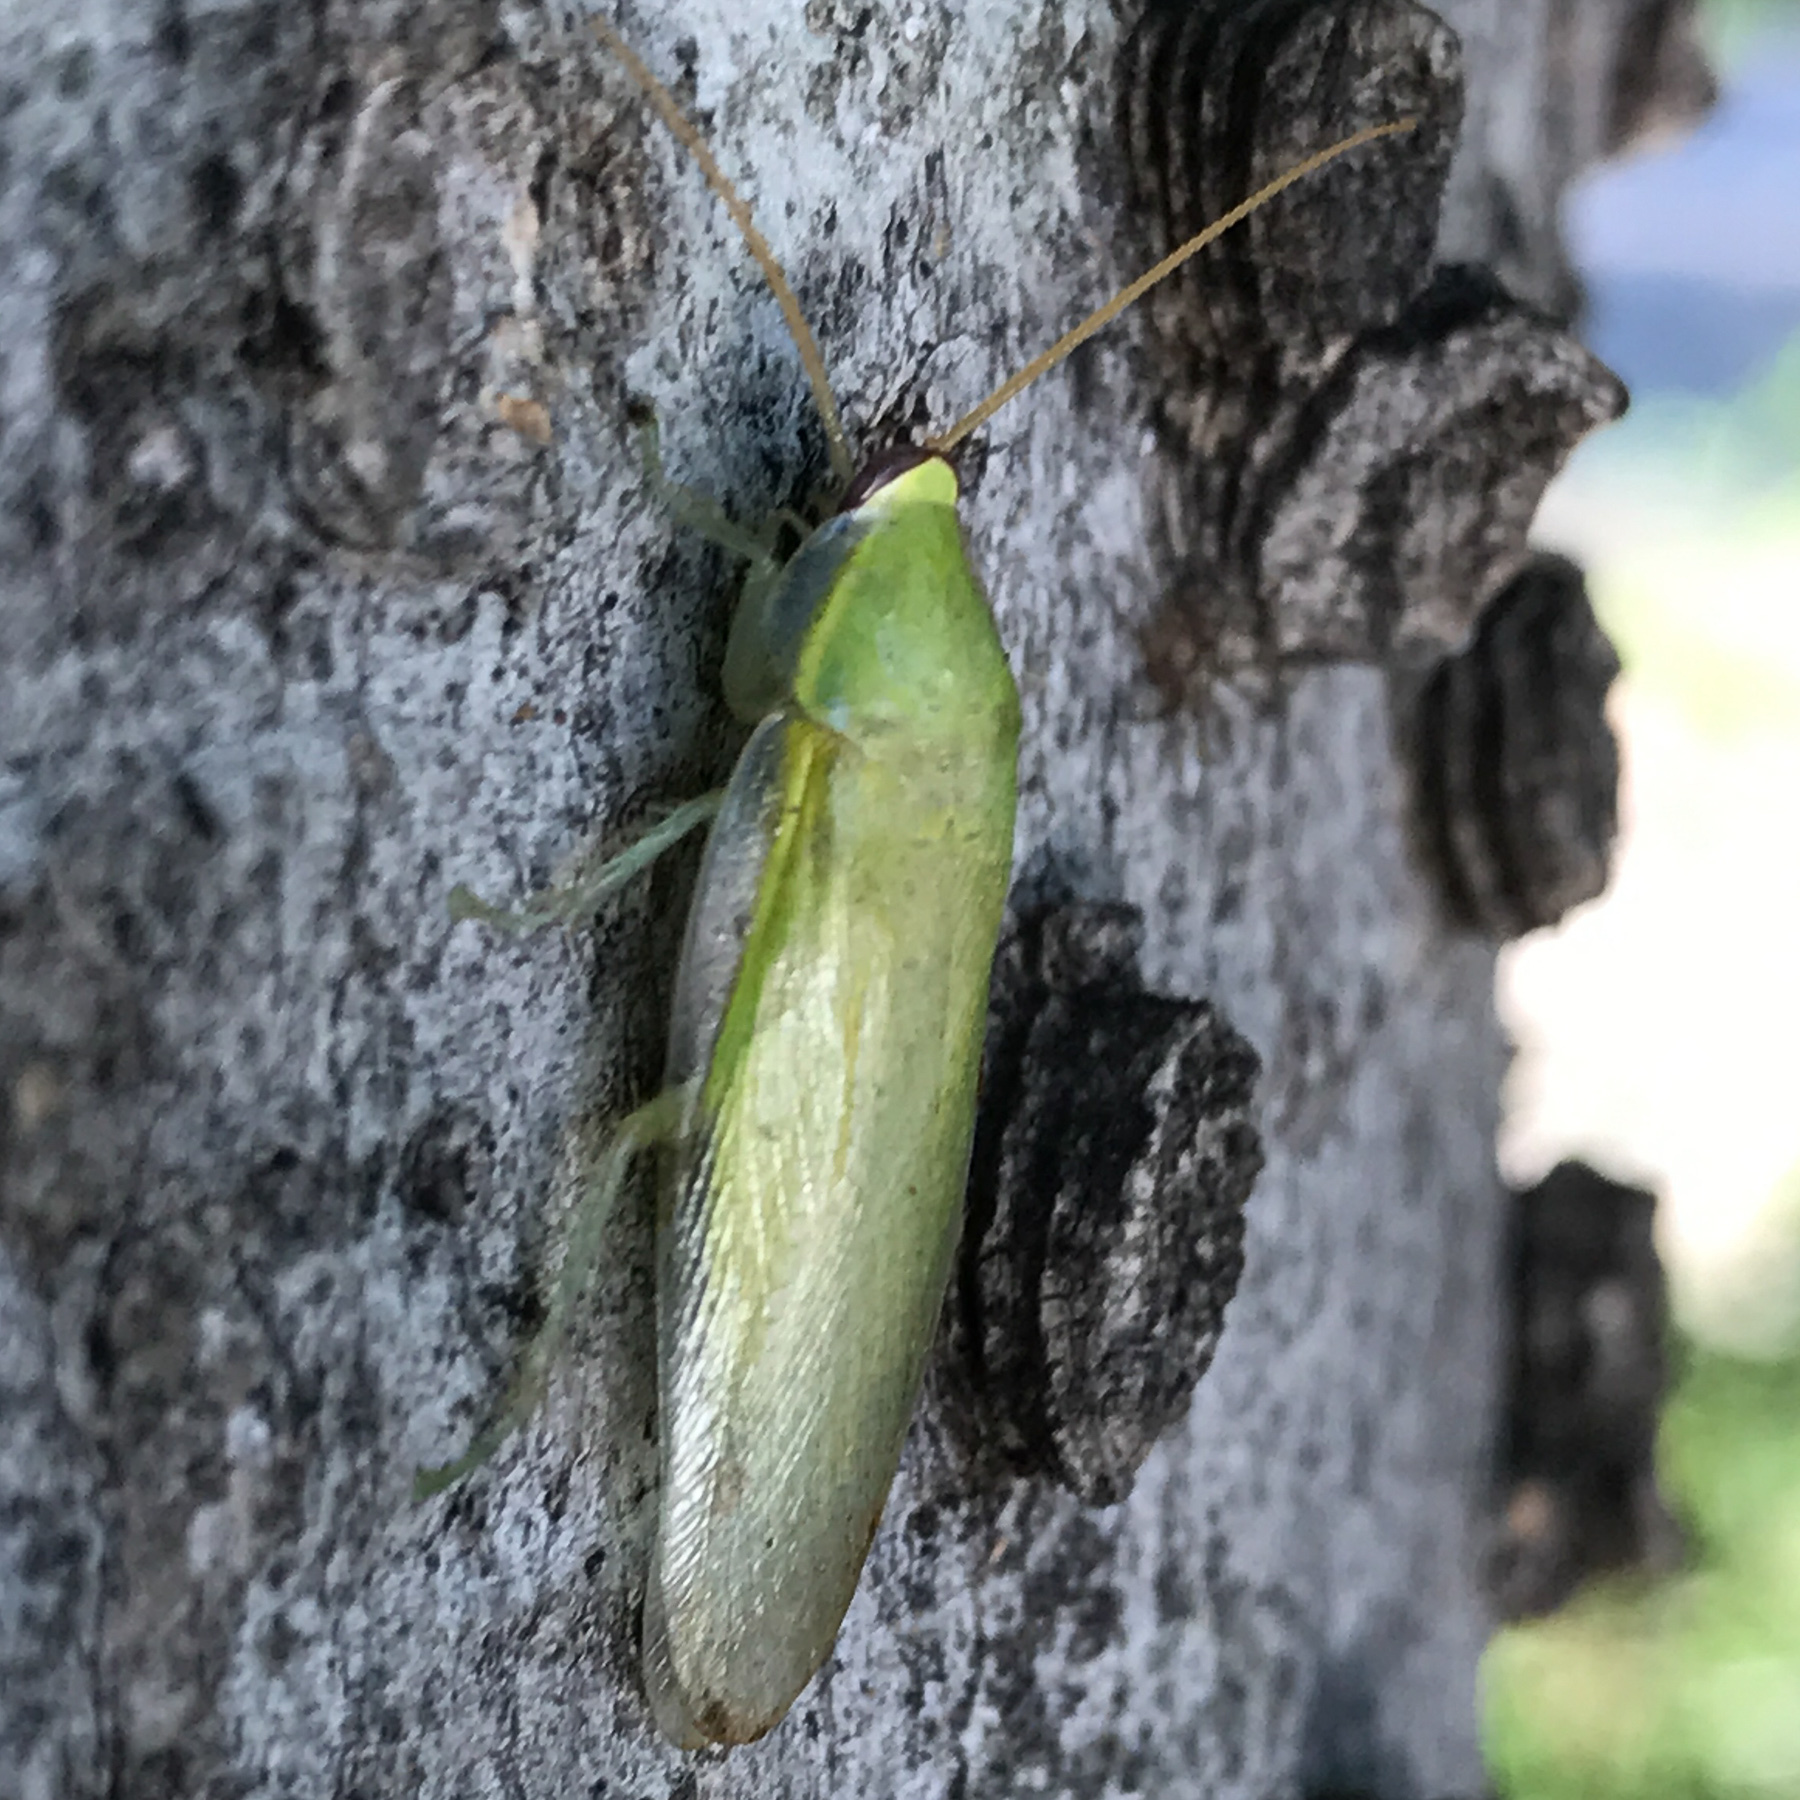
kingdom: Animalia
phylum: Arthropoda
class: Insecta
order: Blattodea
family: Blaberidae
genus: Panchlora
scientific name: Panchlora nivea
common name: Cuban cockroach
